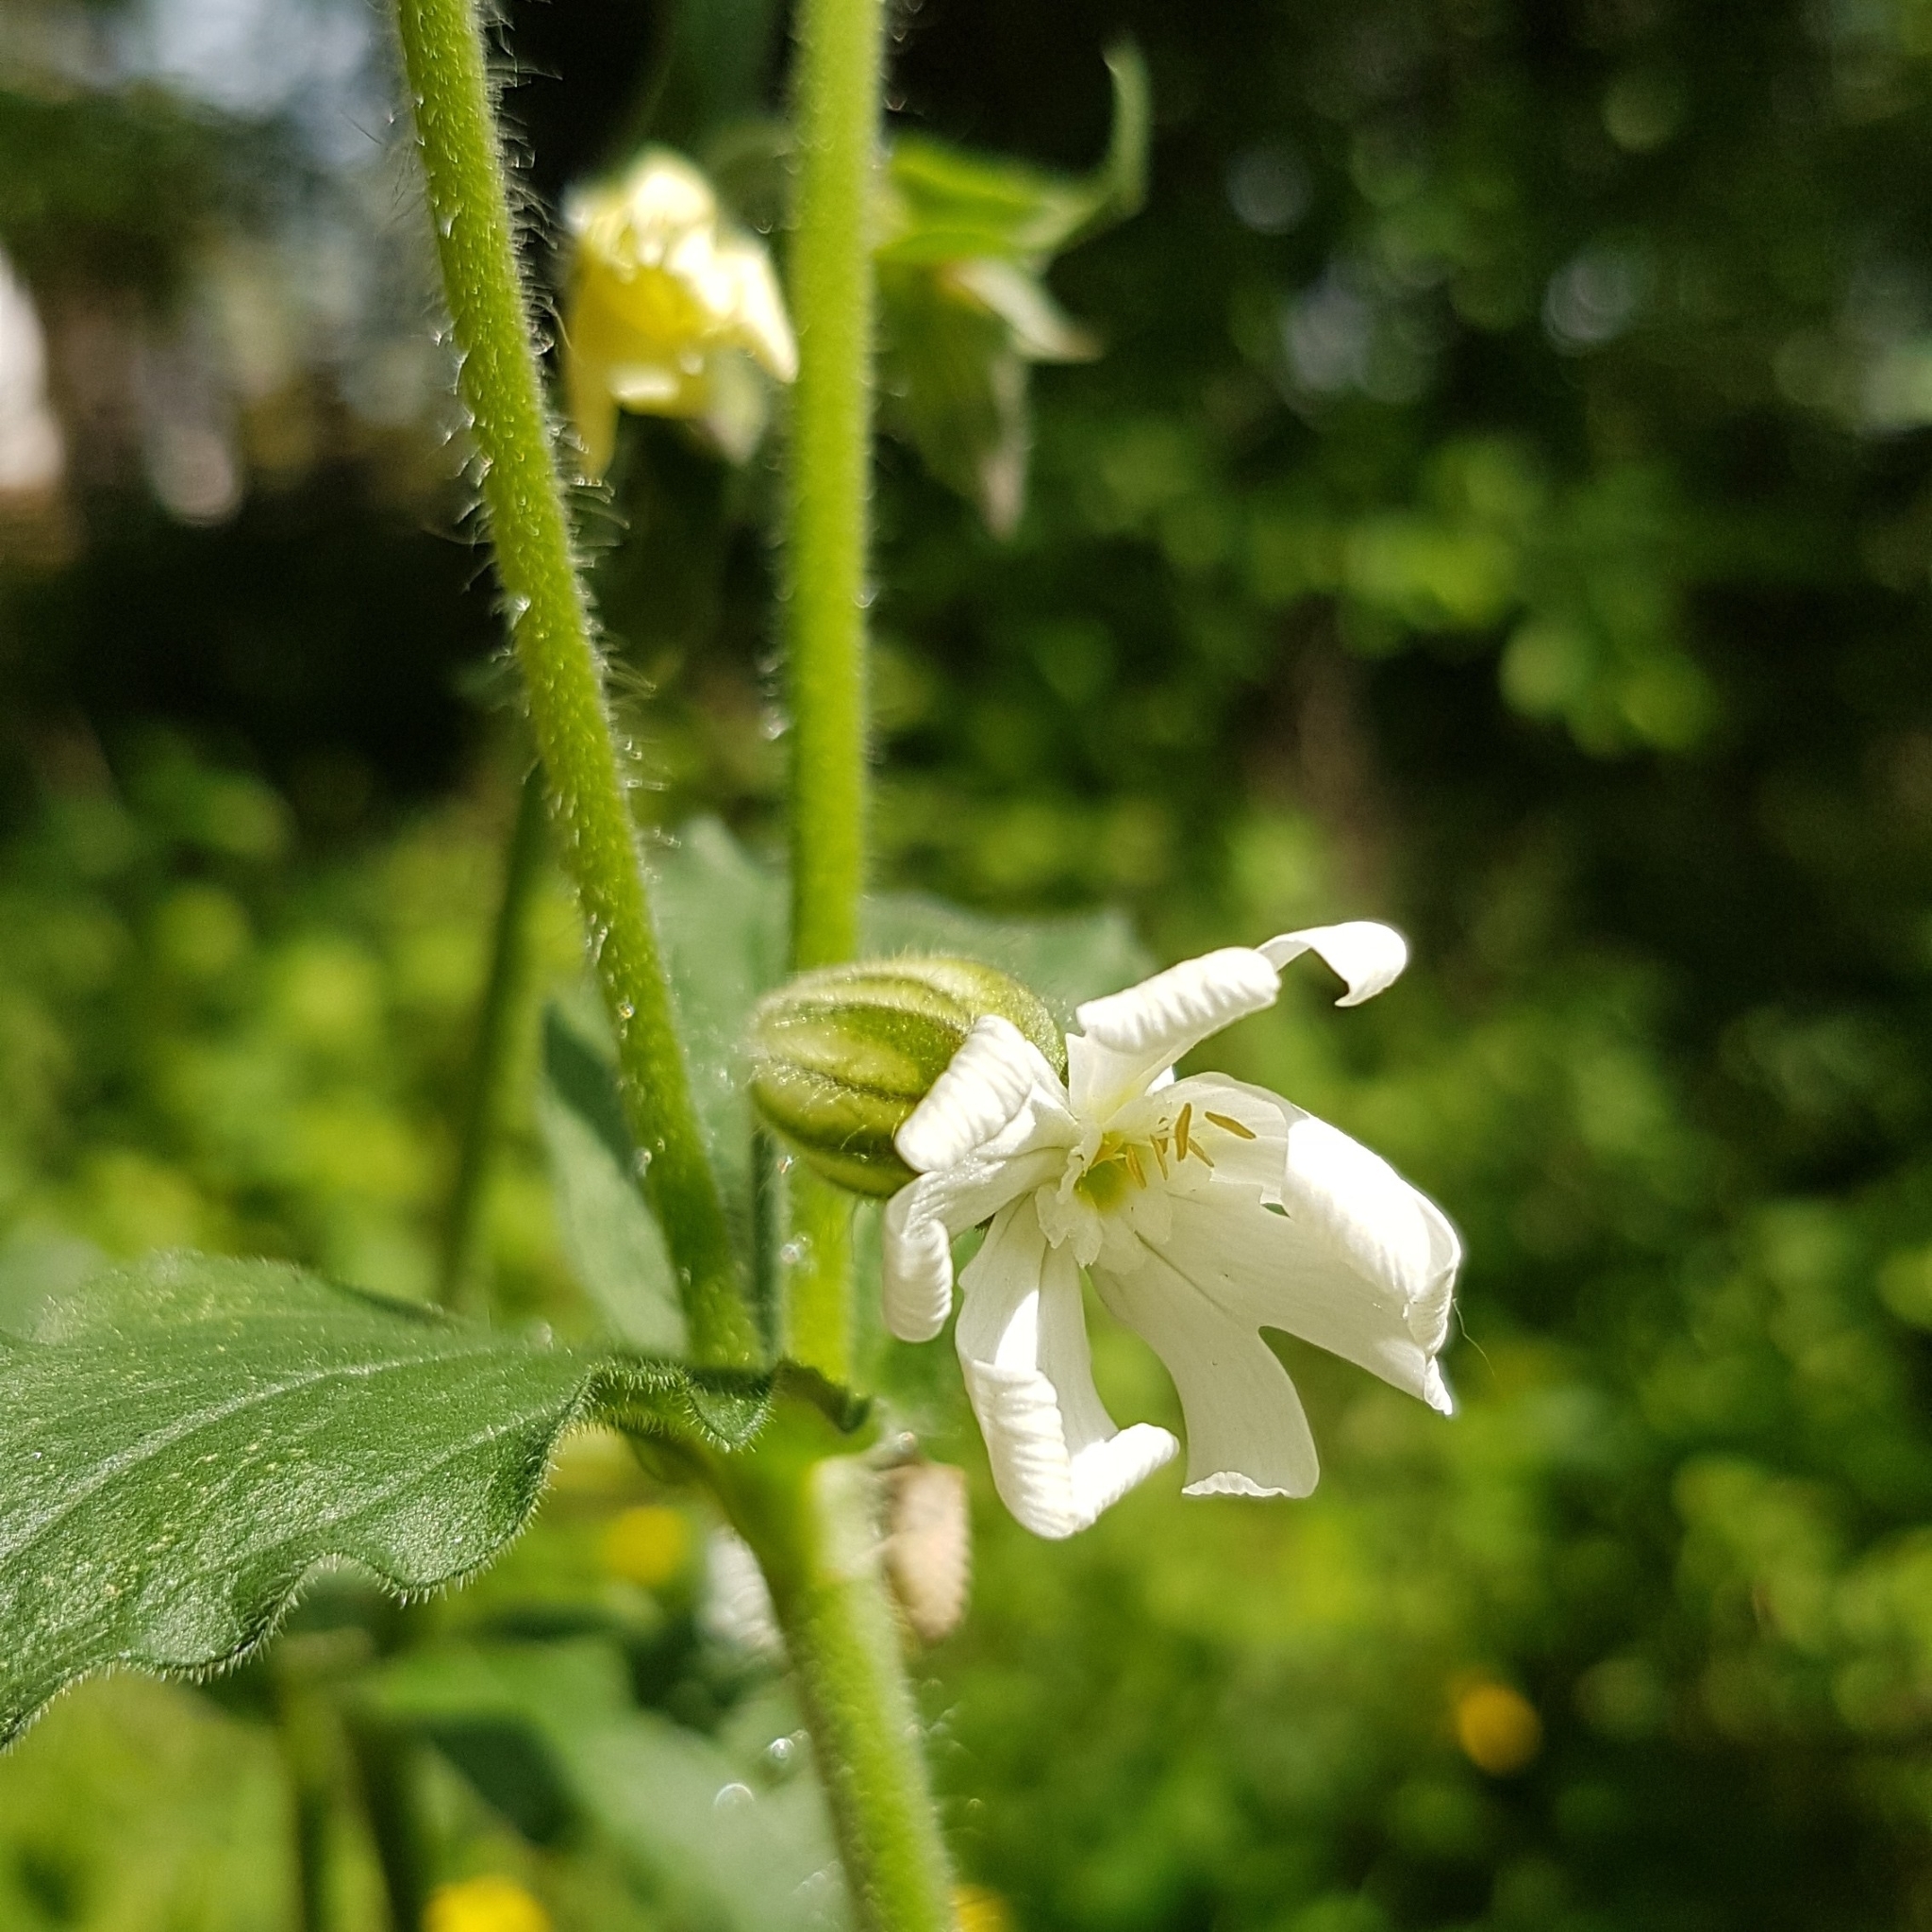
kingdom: Plantae
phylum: Tracheophyta
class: Magnoliopsida
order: Caryophyllales
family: Caryophyllaceae
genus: Silene
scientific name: Silene latifolia
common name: White campion
